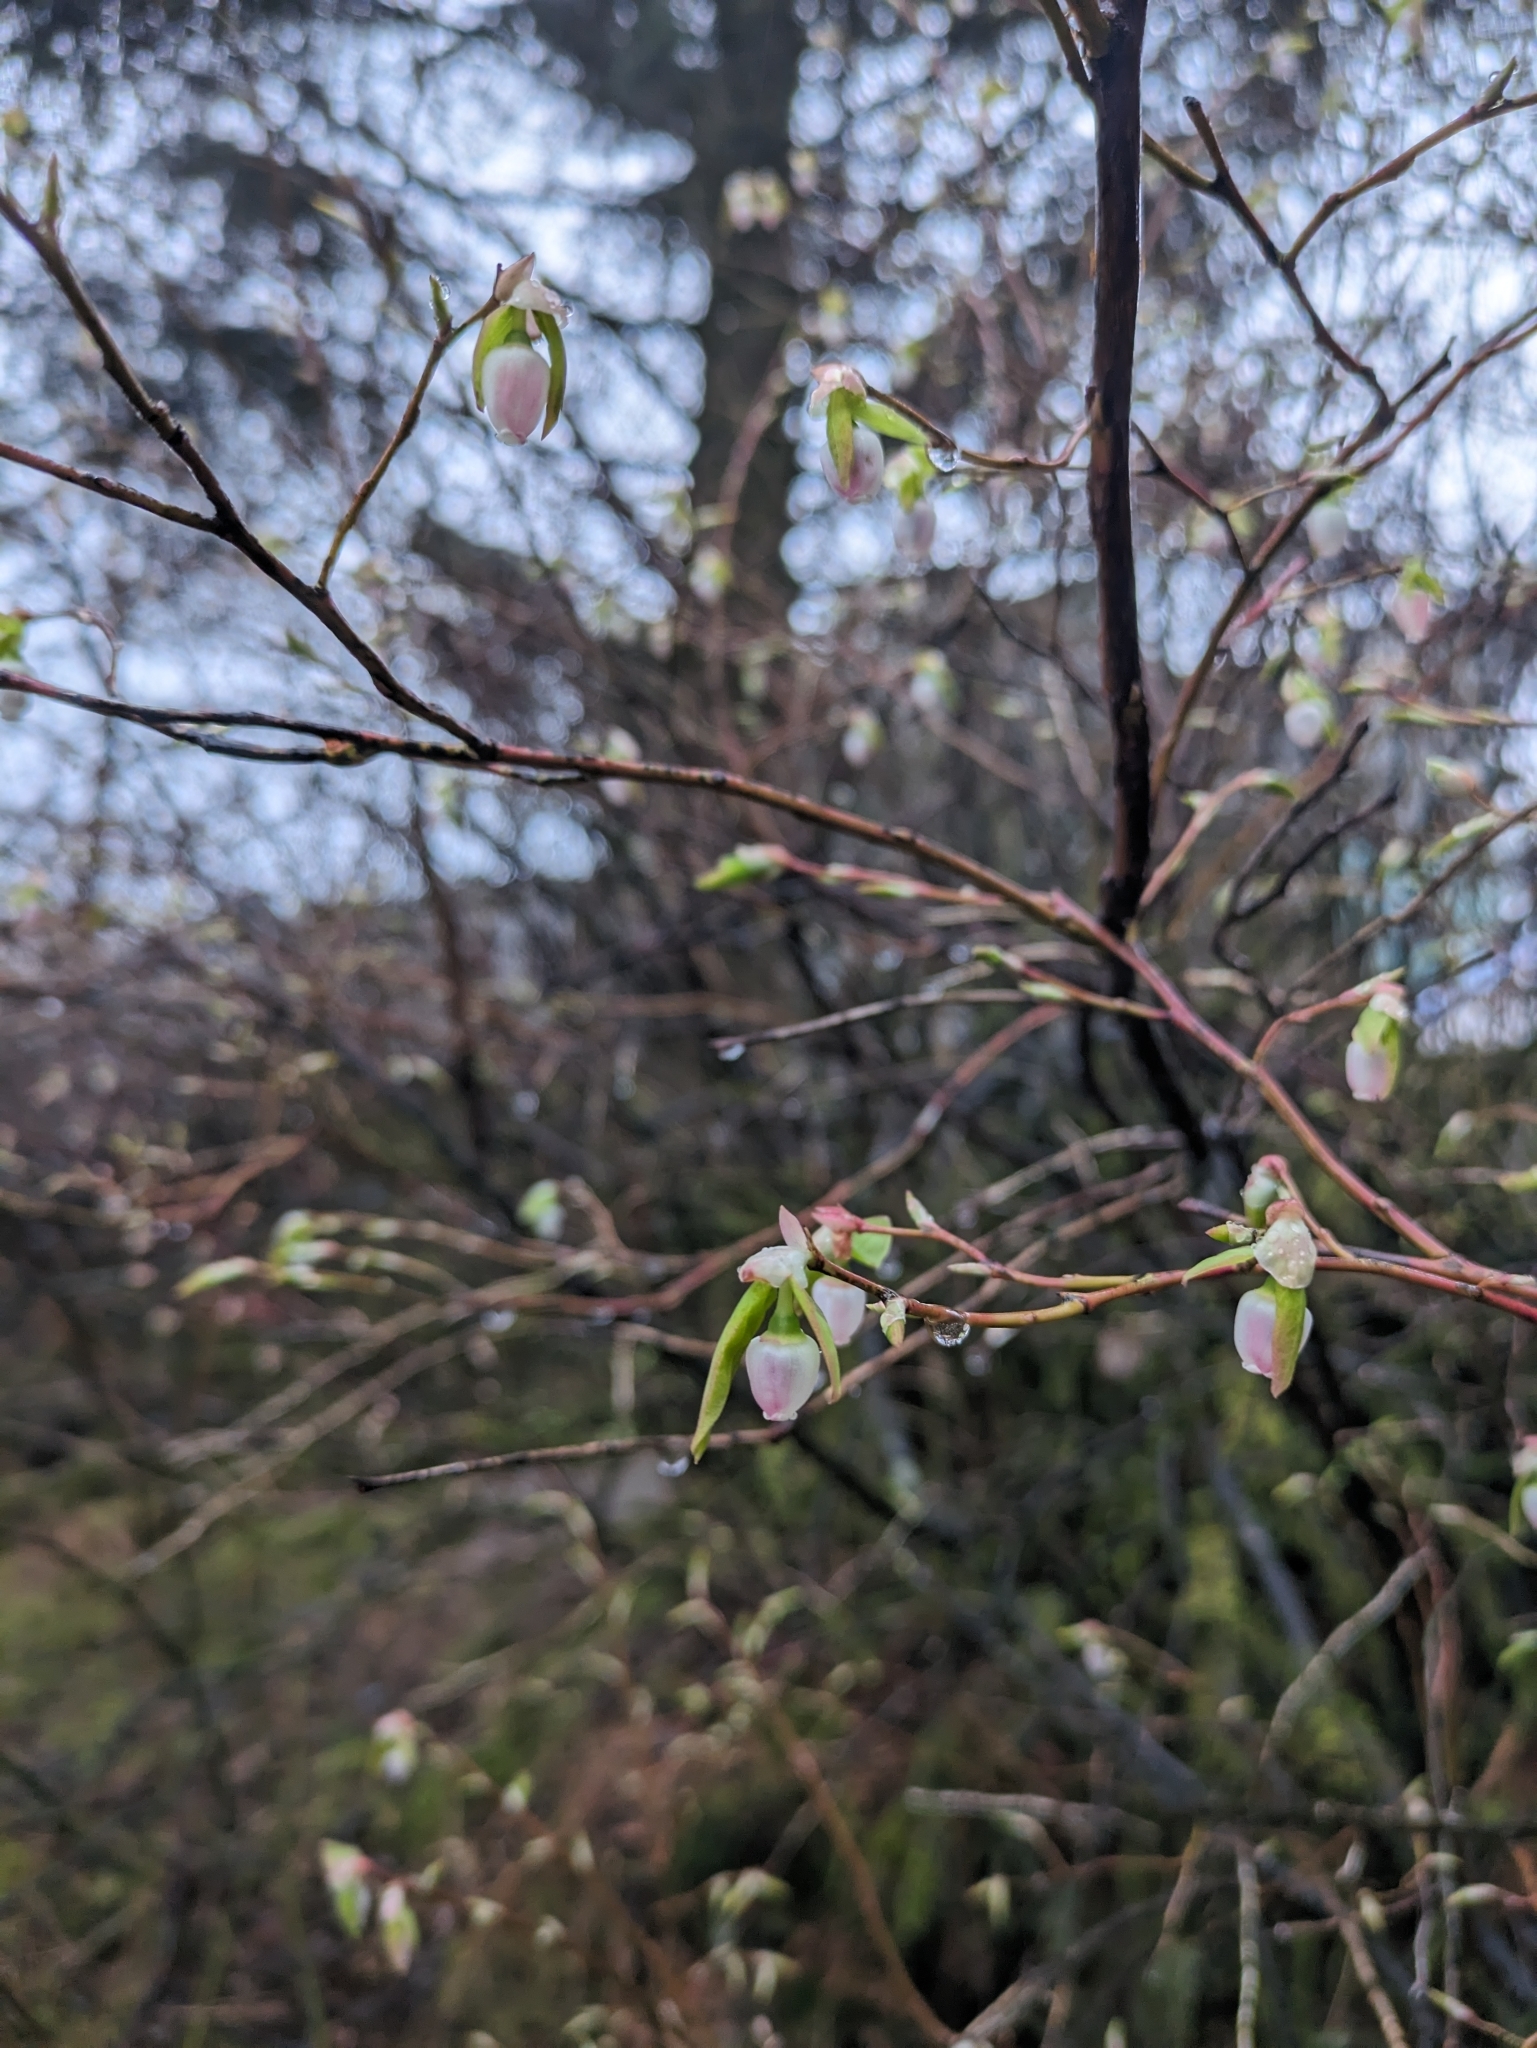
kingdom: Plantae
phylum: Tracheophyta
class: Magnoliopsida
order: Ericales
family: Ericaceae
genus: Vaccinium
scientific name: Vaccinium ovalifolium
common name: Early blueberry
